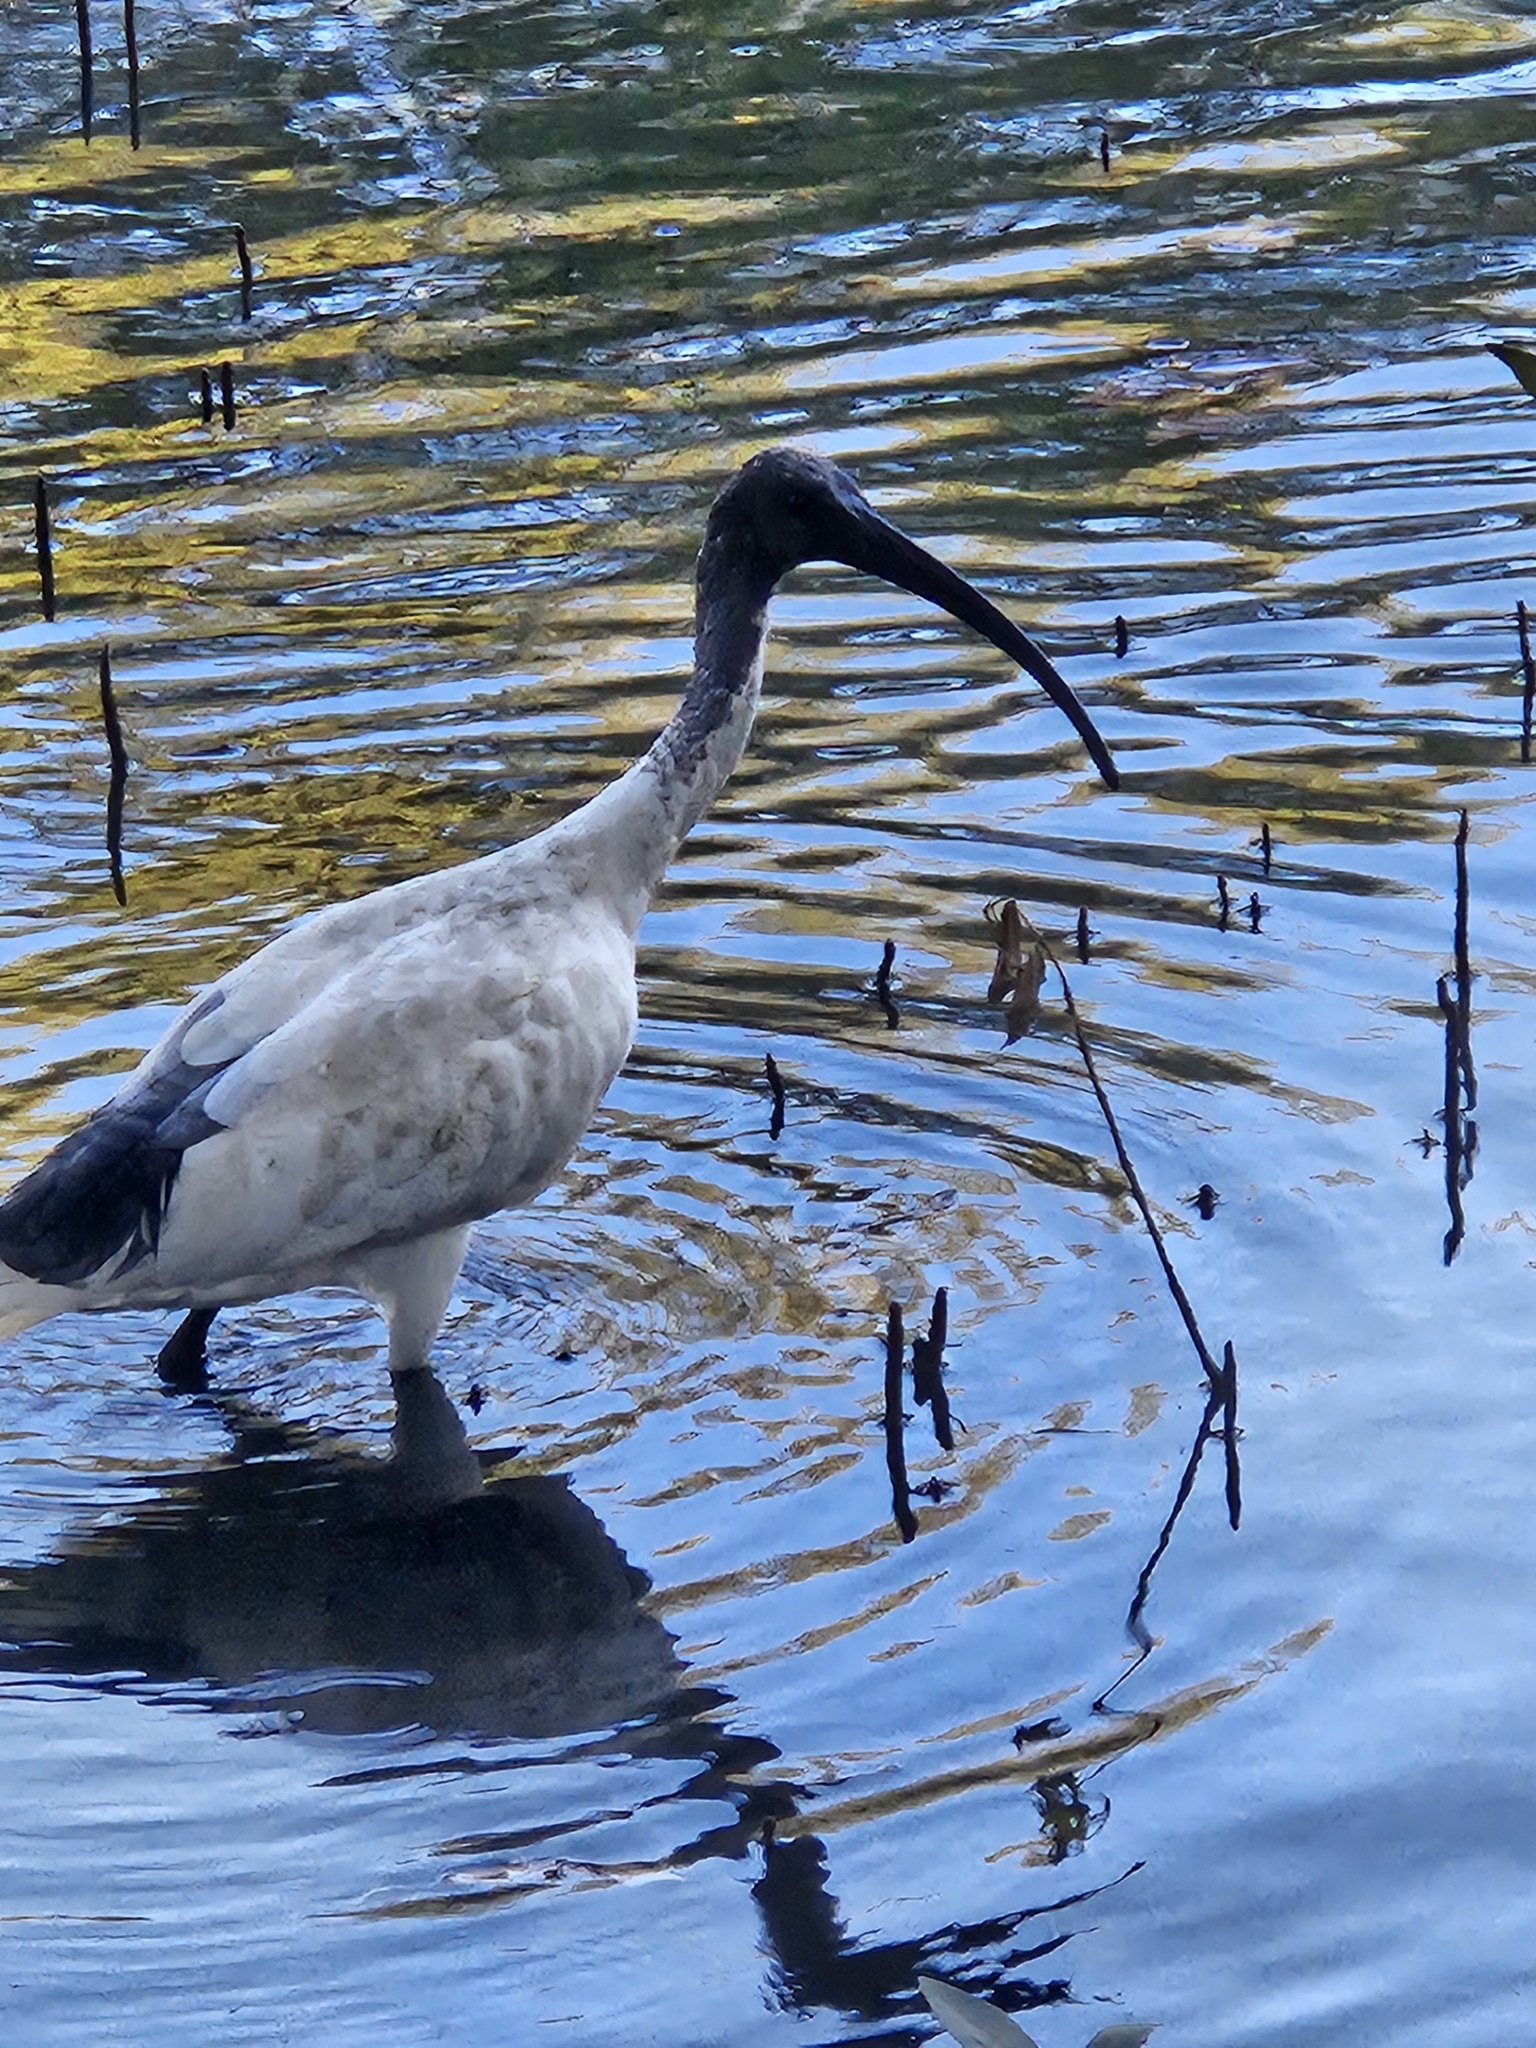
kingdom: Animalia
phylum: Chordata
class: Aves
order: Pelecaniformes
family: Threskiornithidae
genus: Threskiornis
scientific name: Threskiornis molucca
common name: Australian white ibis
